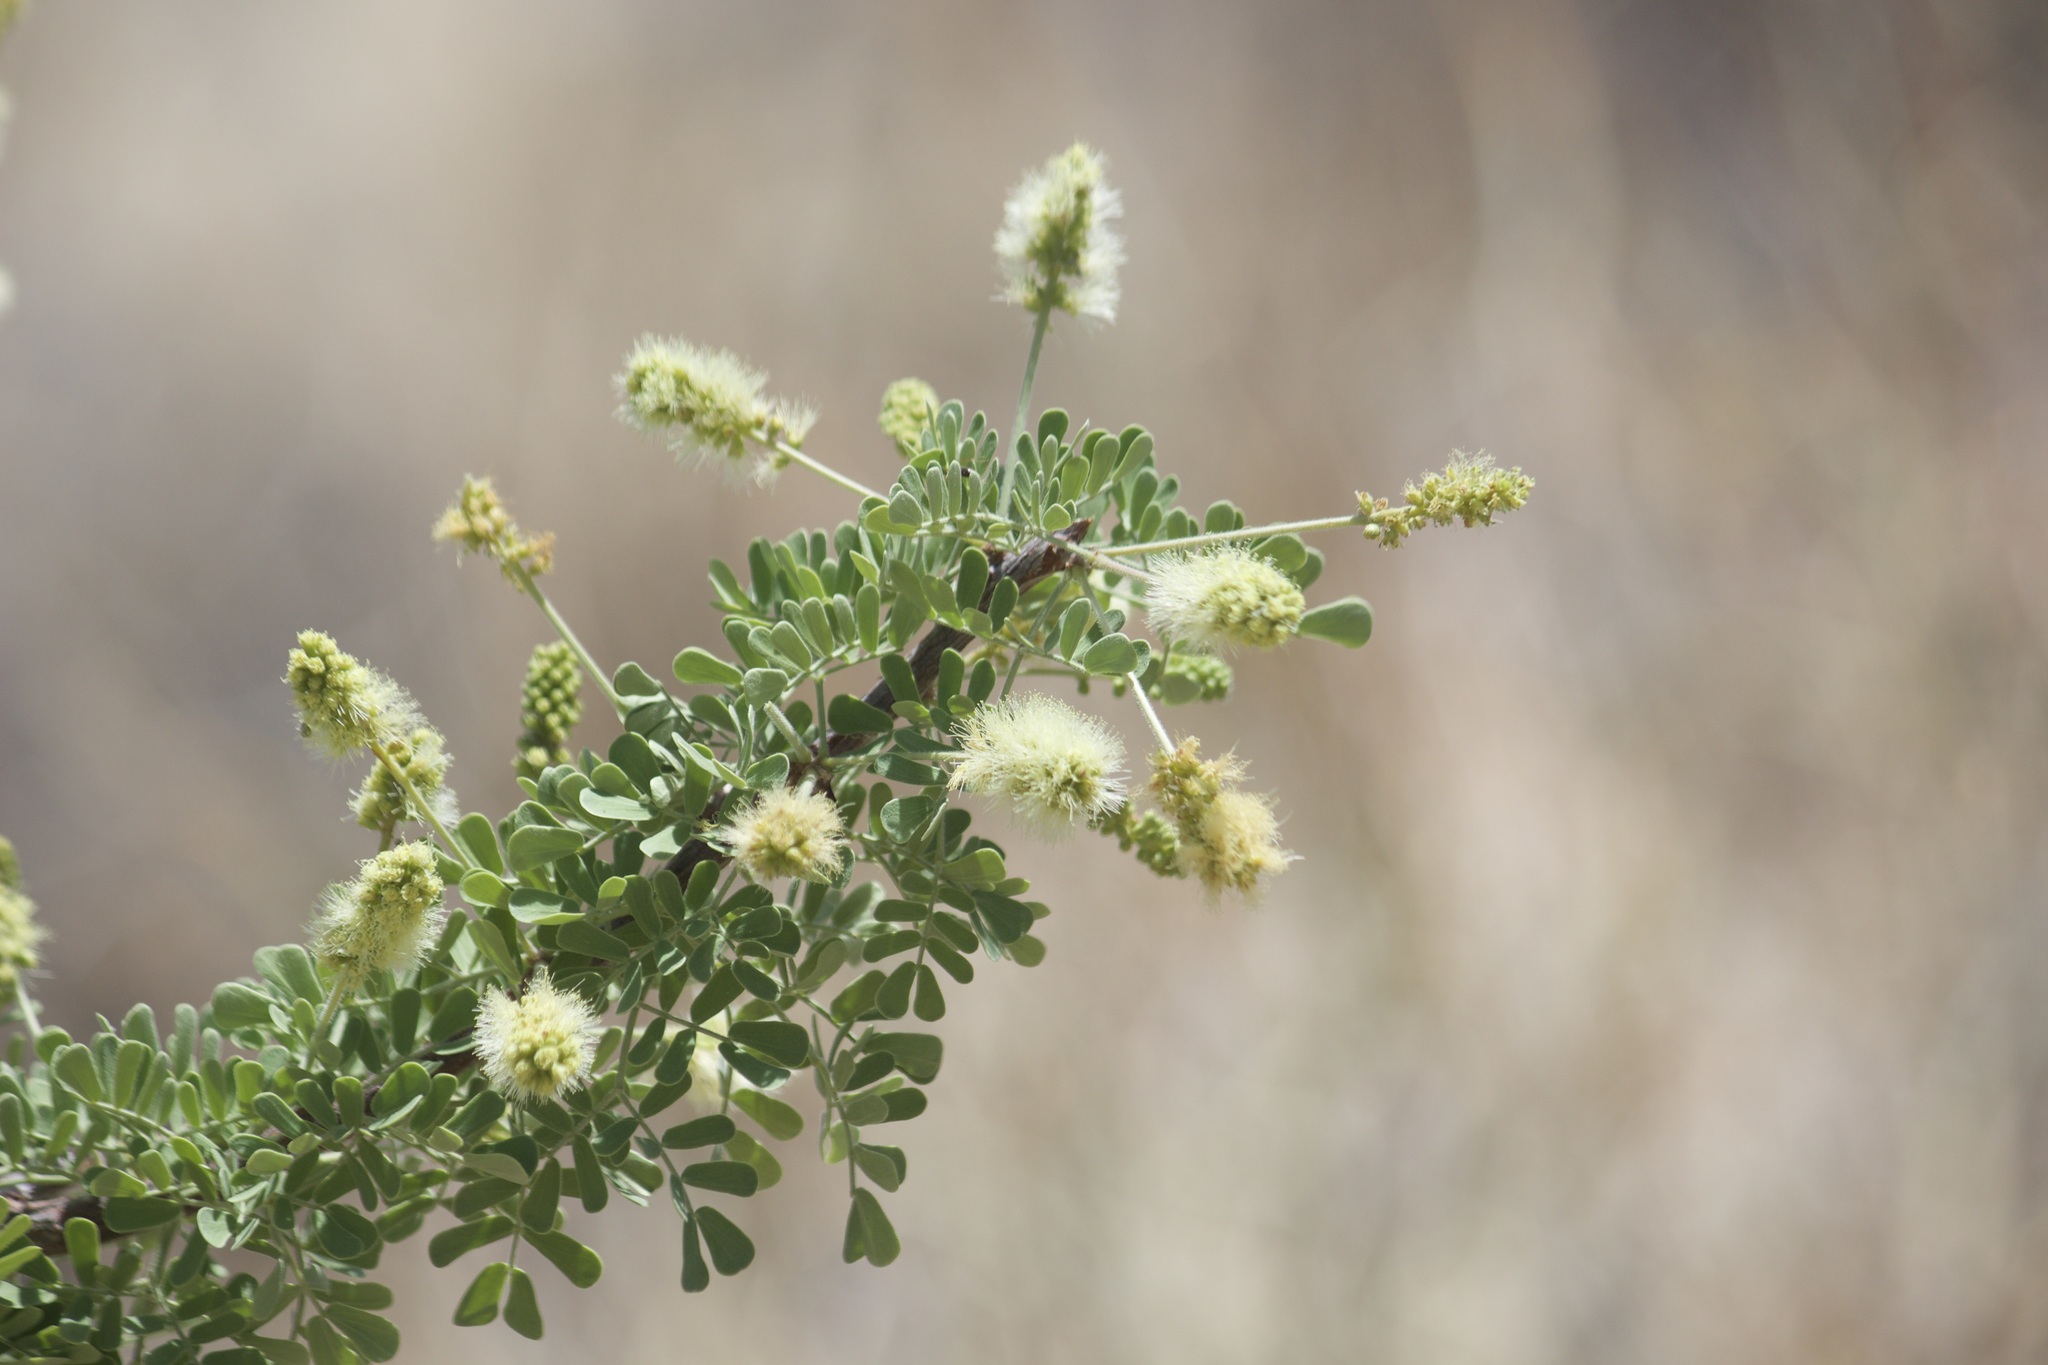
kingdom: Plantae
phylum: Tracheophyta
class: Magnoliopsida
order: Fabales
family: Fabaceae
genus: Senegalia
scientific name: Senegalia greggii
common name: Texas-mimosa
